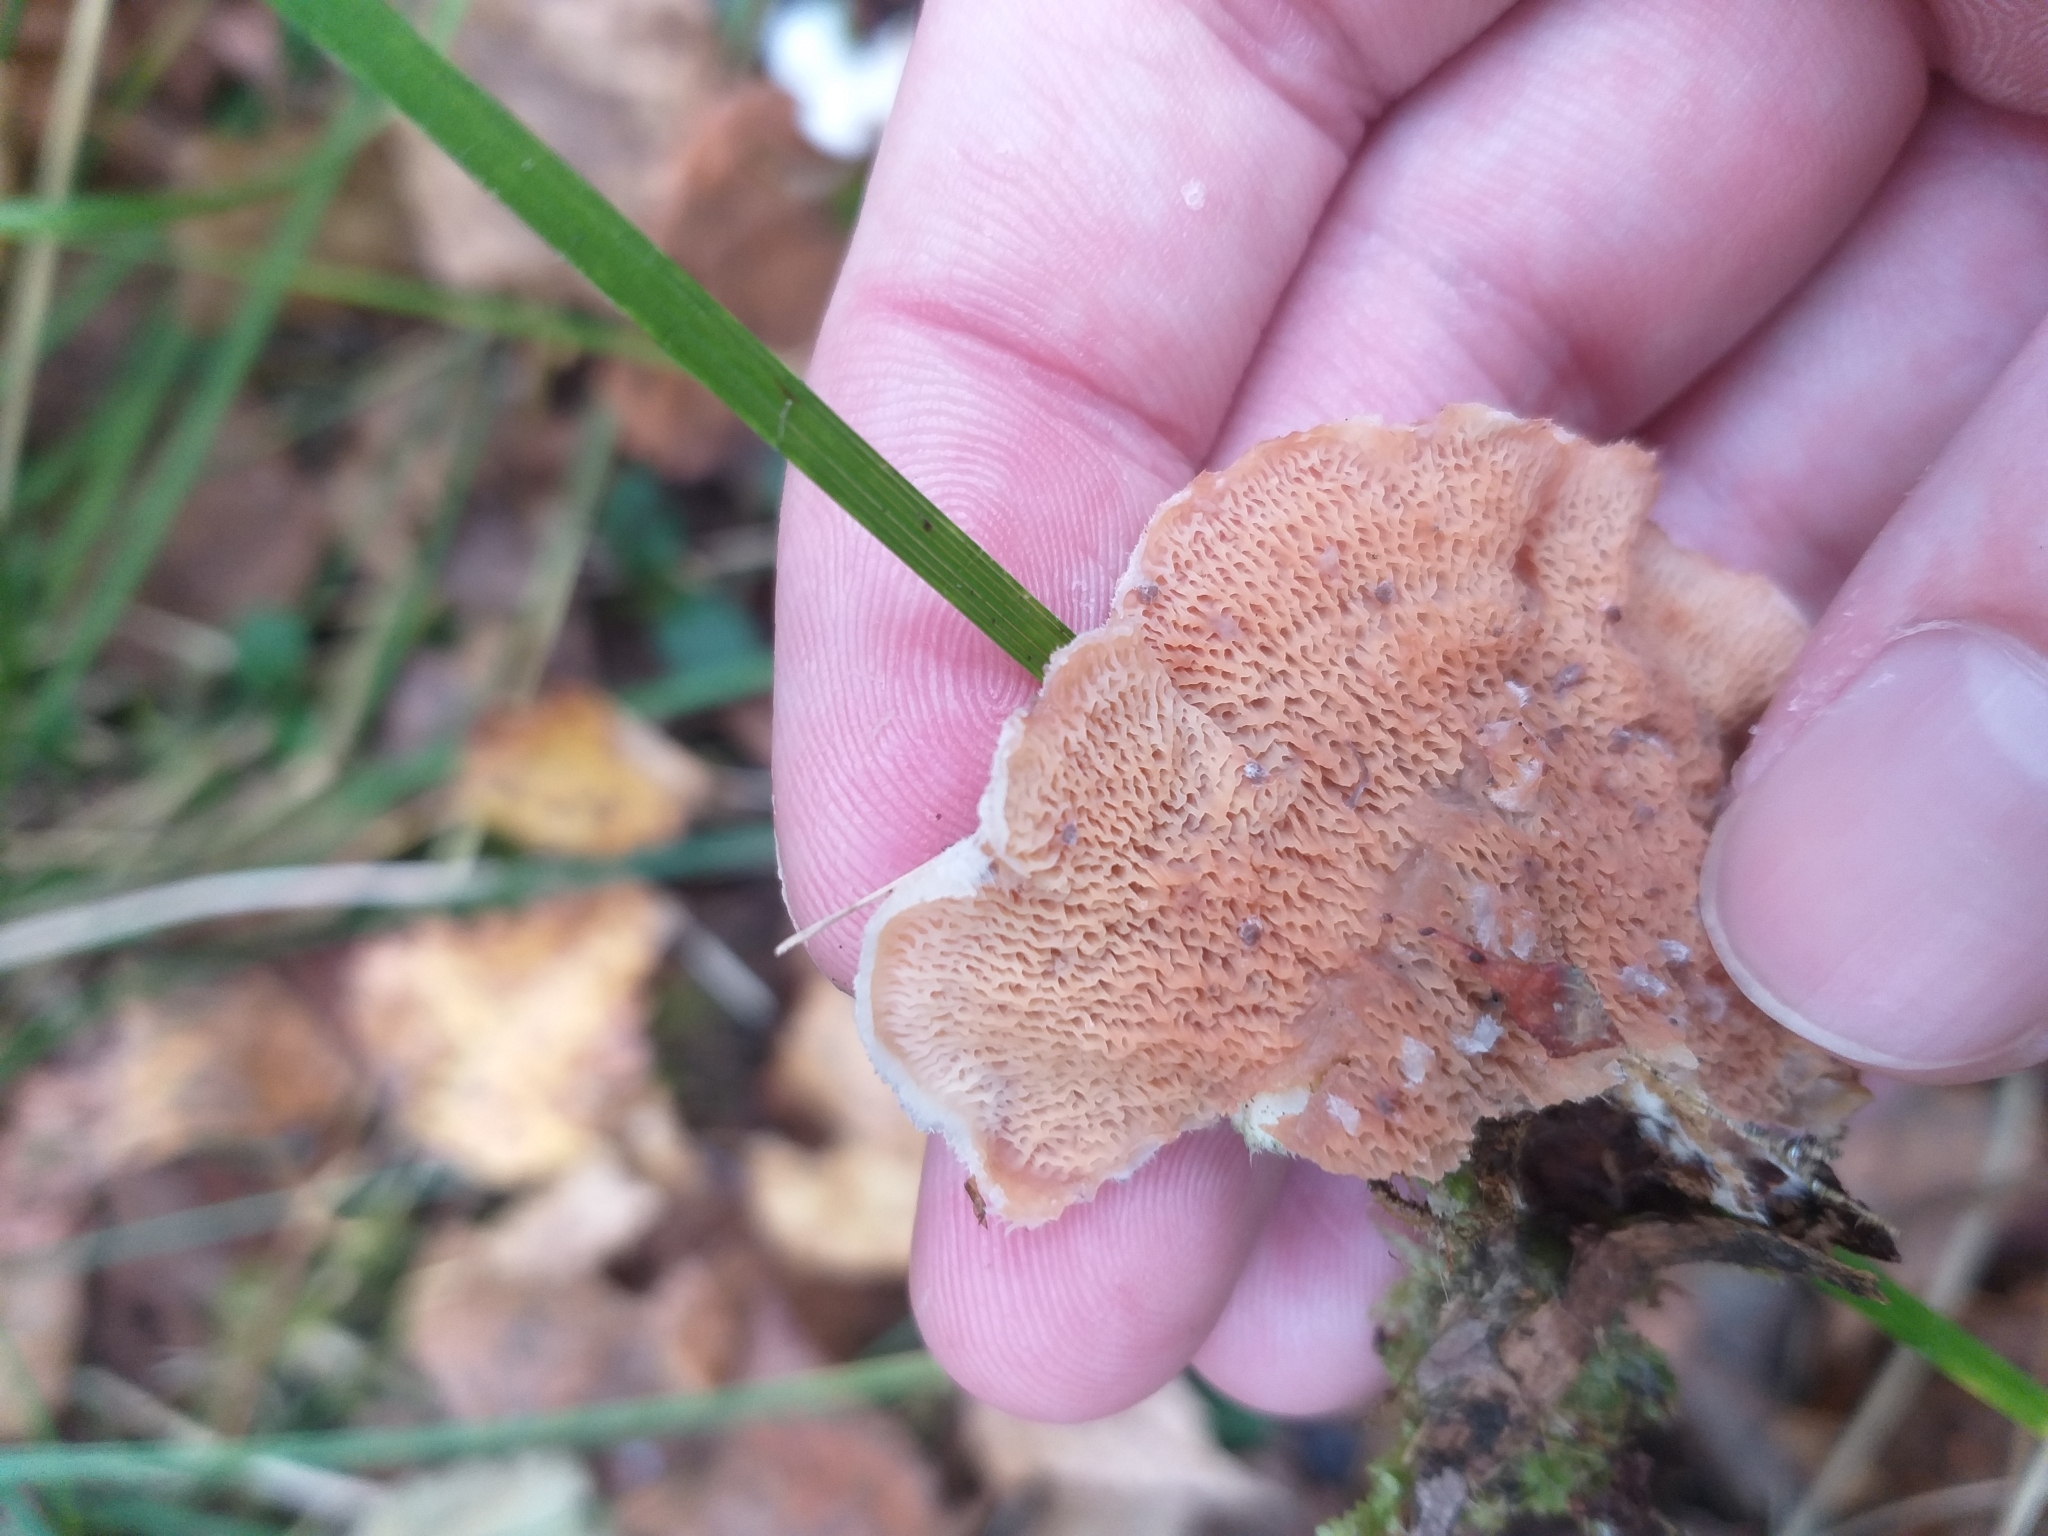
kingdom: Fungi
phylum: Basidiomycota
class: Agaricomycetes
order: Polyporales
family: Meruliaceae
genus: Phlebia
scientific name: Phlebia tremellosa
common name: Jelly rot
